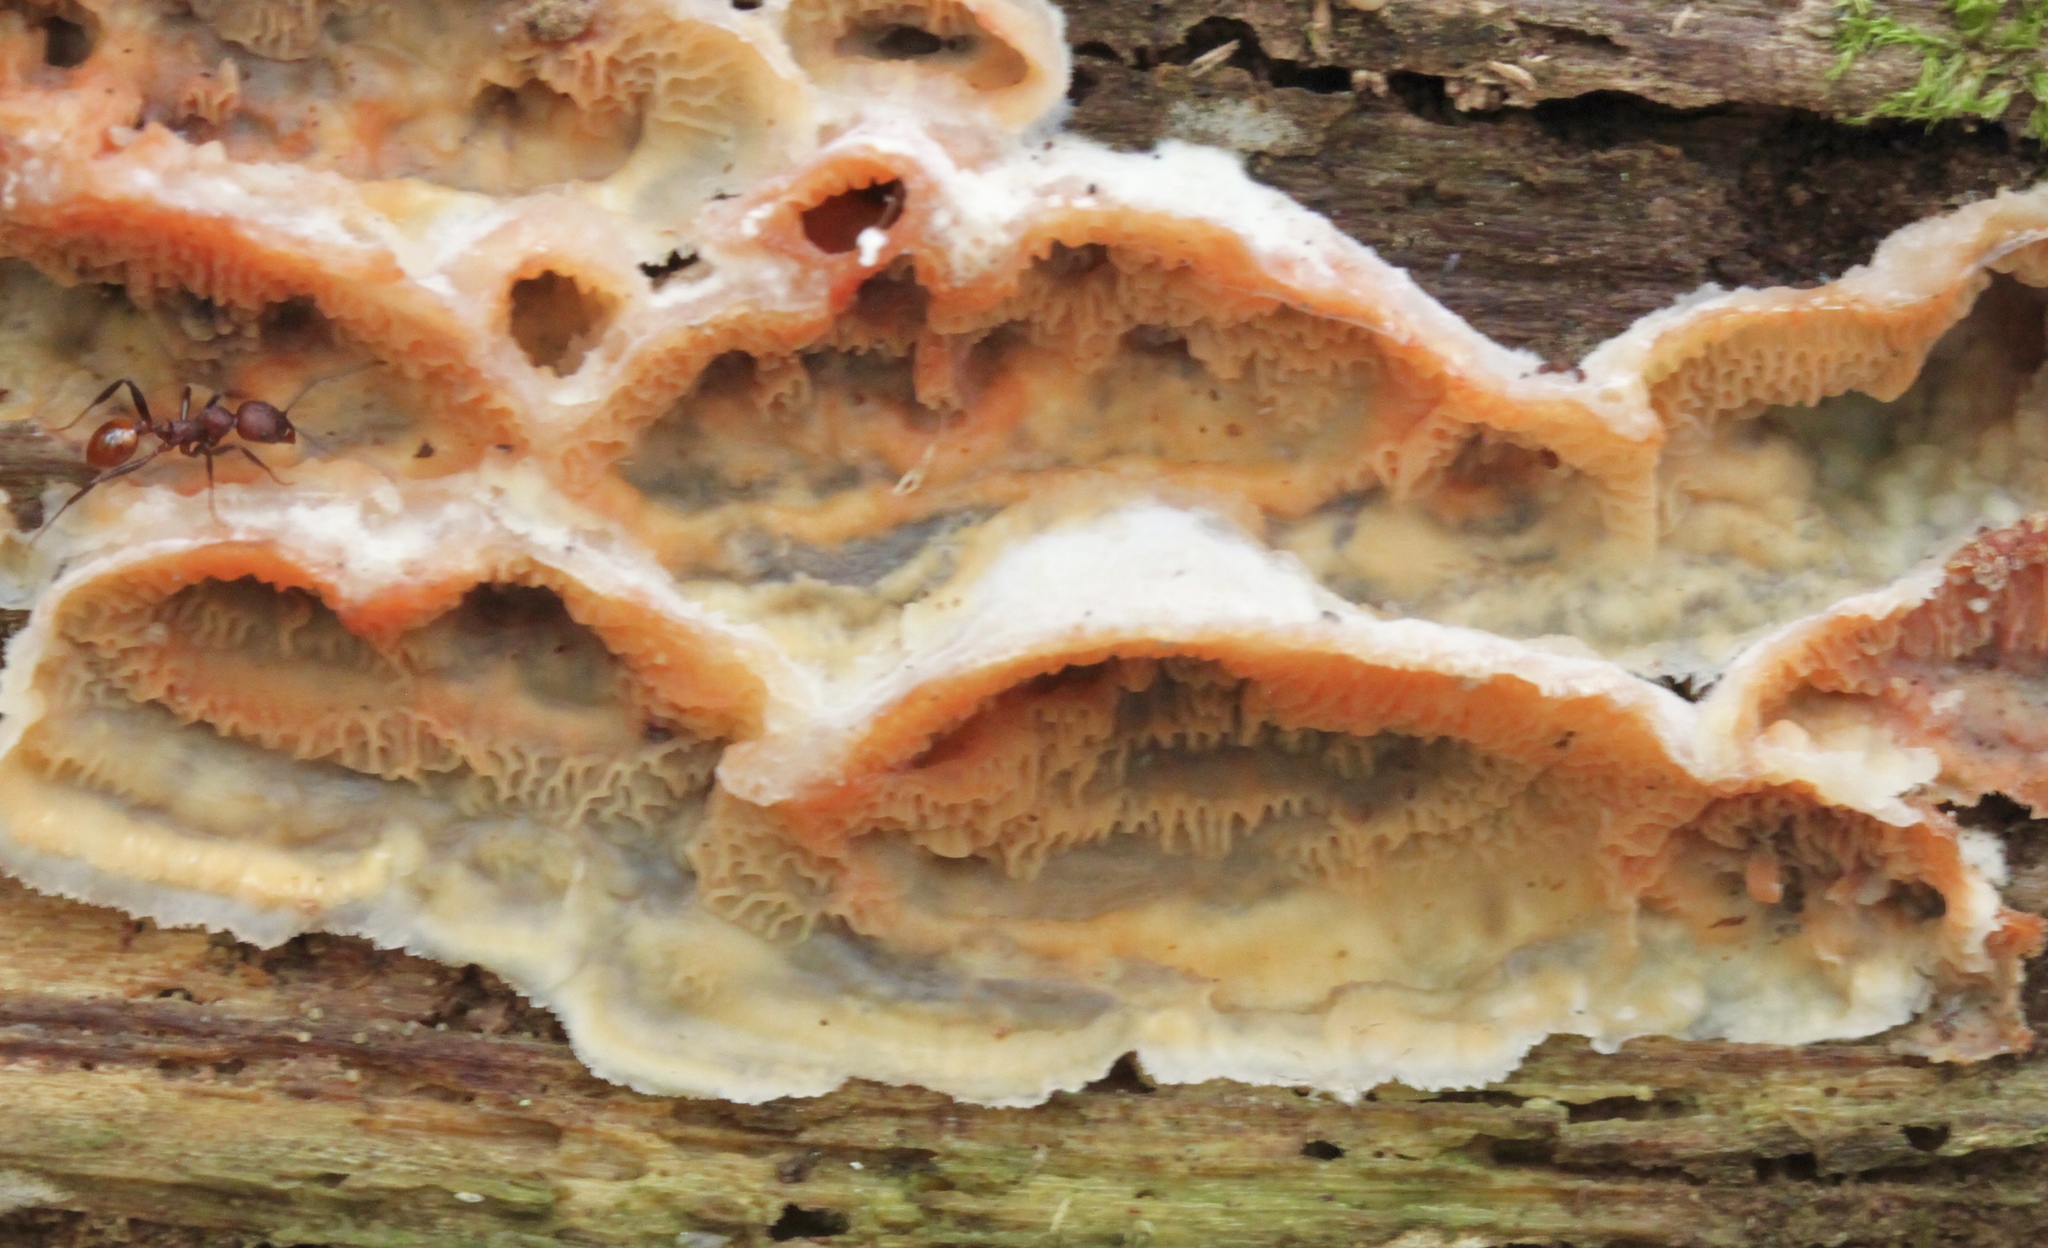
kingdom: Fungi
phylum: Basidiomycota
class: Agaricomycetes
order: Polyporales
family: Meruliaceae
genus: Phlebia
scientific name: Phlebia tremellosa
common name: Jelly rot
